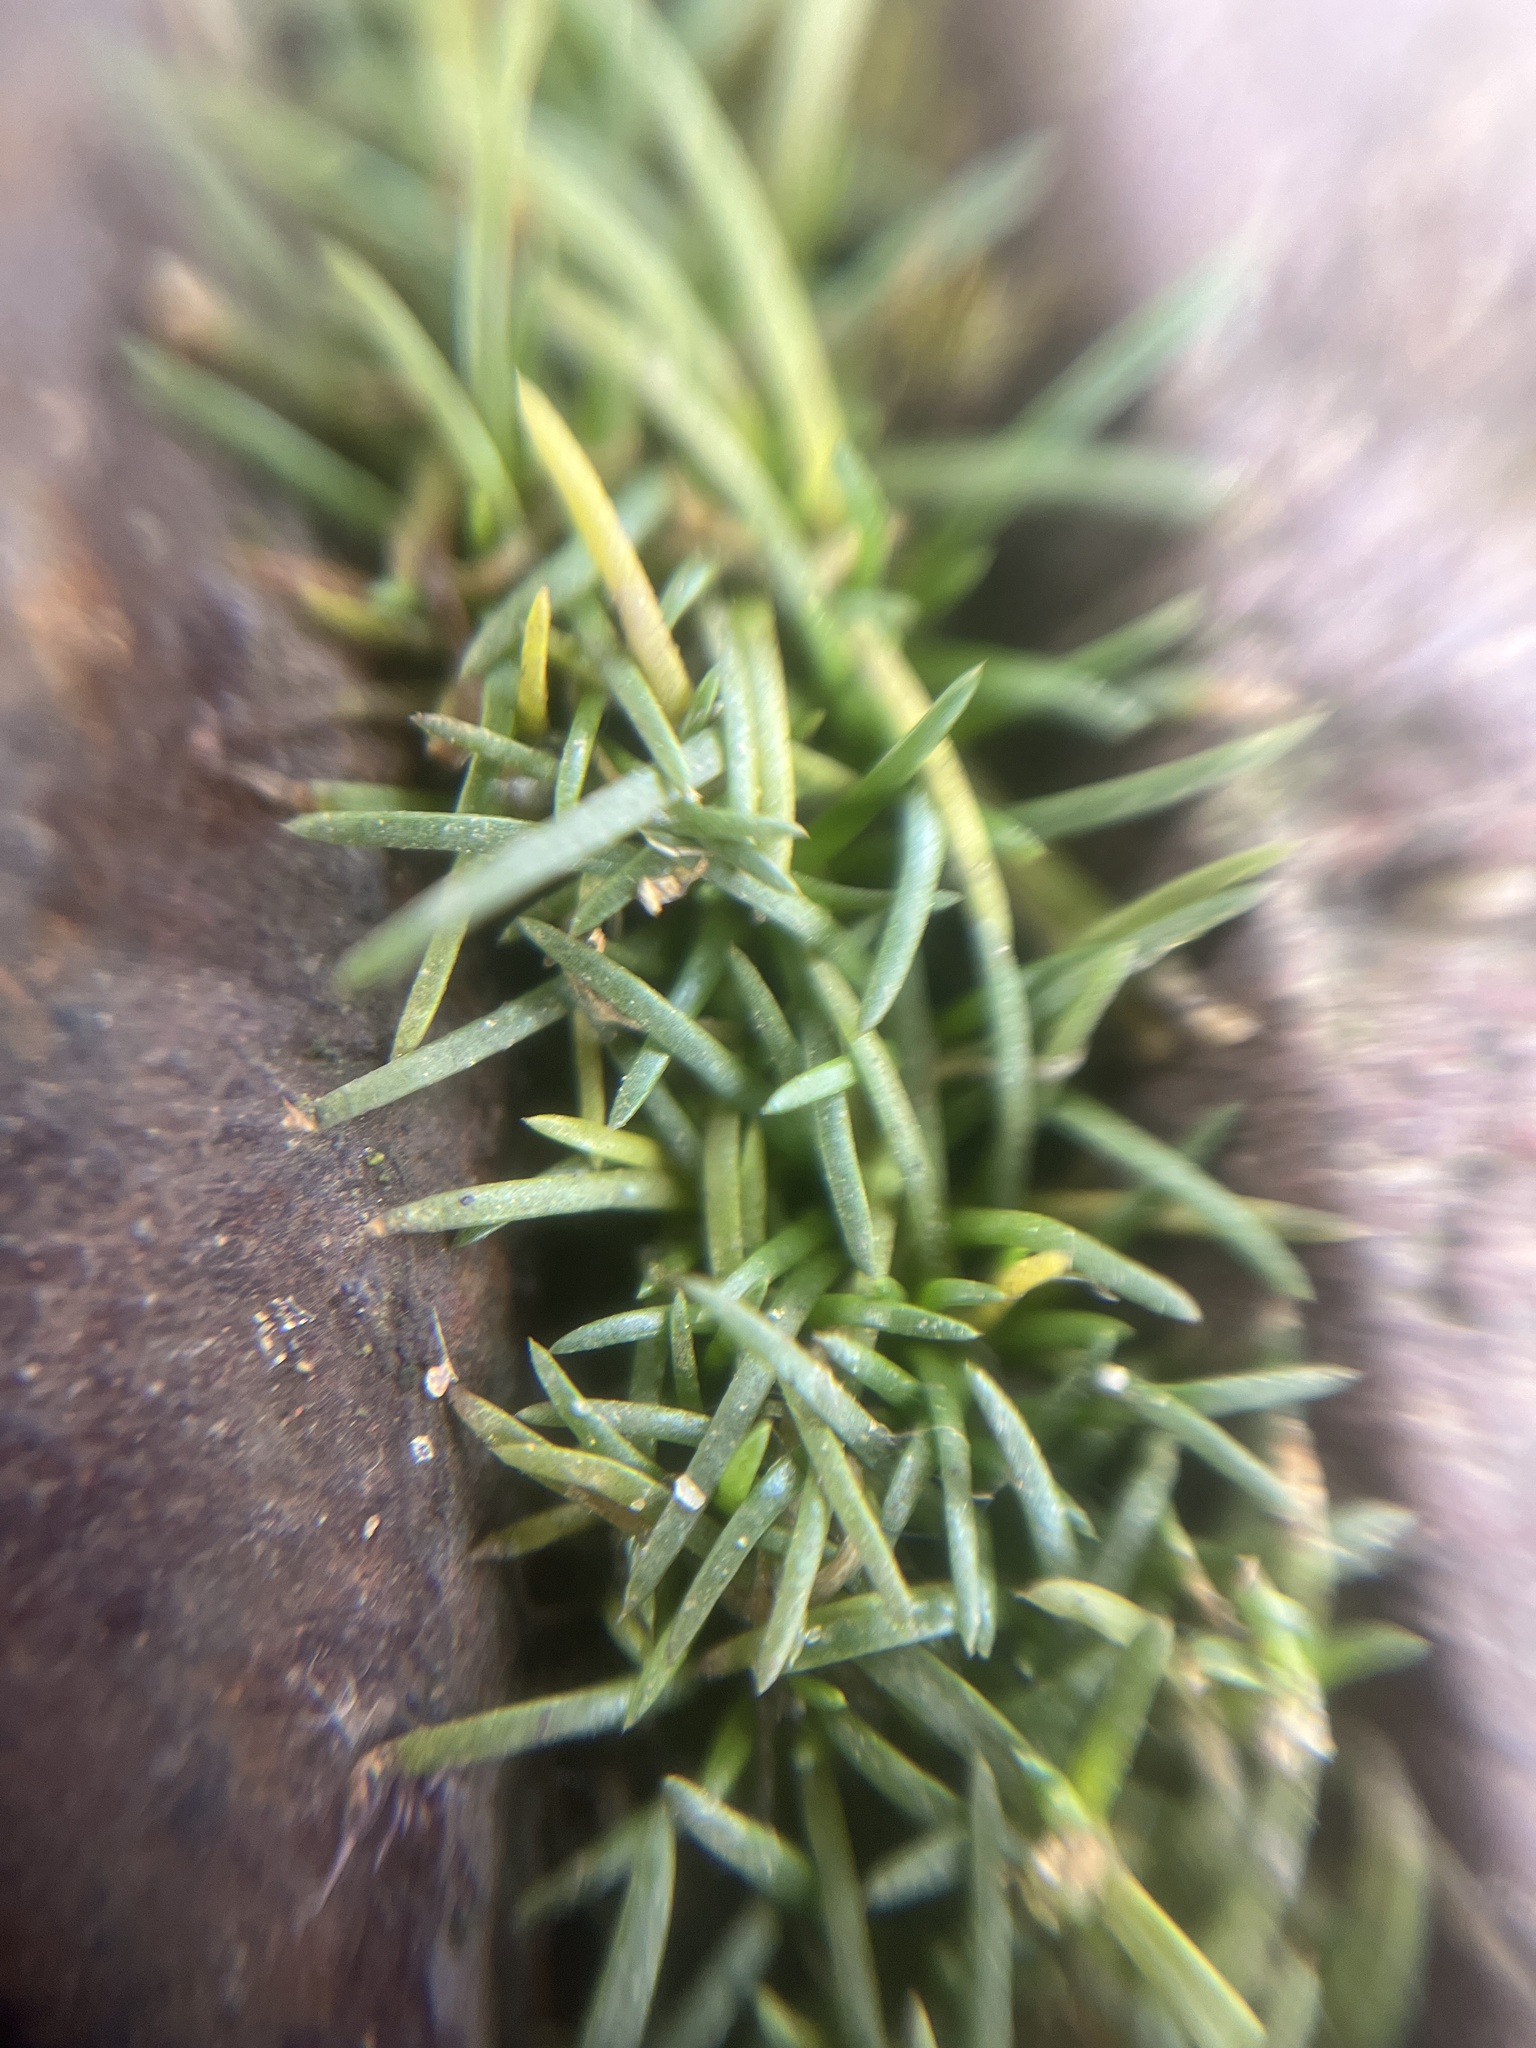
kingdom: Plantae
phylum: Tracheophyta
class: Magnoliopsida
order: Caryophyllales
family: Caryophyllaceae
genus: Sagina
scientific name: Sagina procumbens
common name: Procumbent pearlwort
